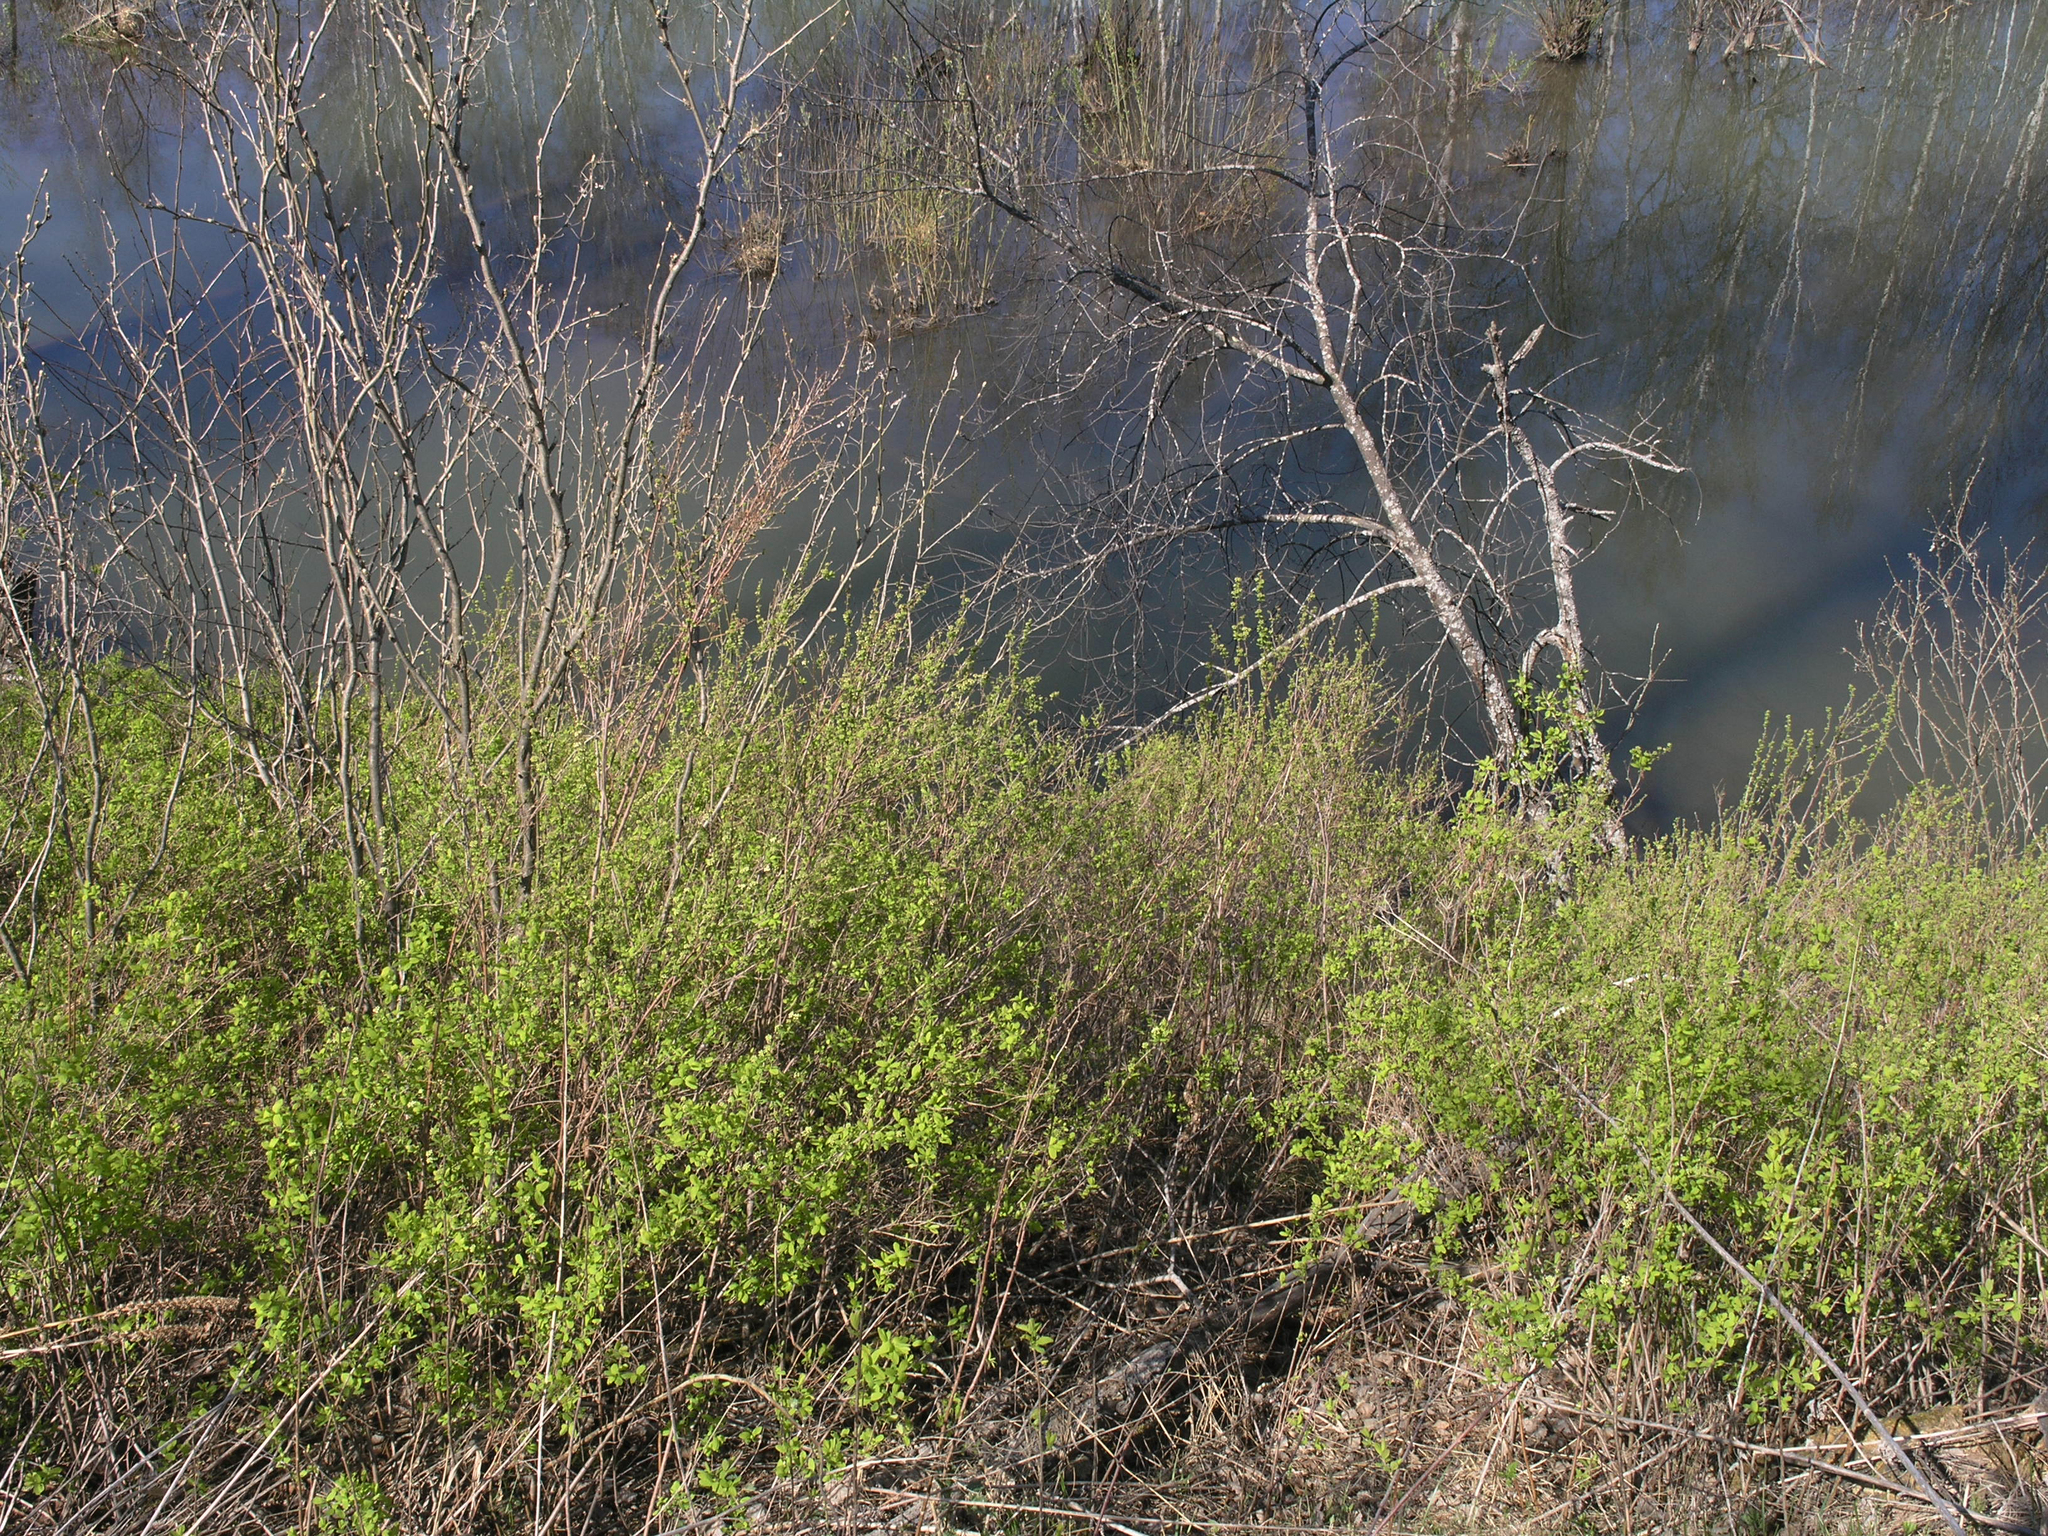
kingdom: Plantae
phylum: Tracheophyta
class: Magnoliopsida
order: Rosales
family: Rosaceae
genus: Spiraea
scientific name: Spiraea media
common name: Russian spiraea
